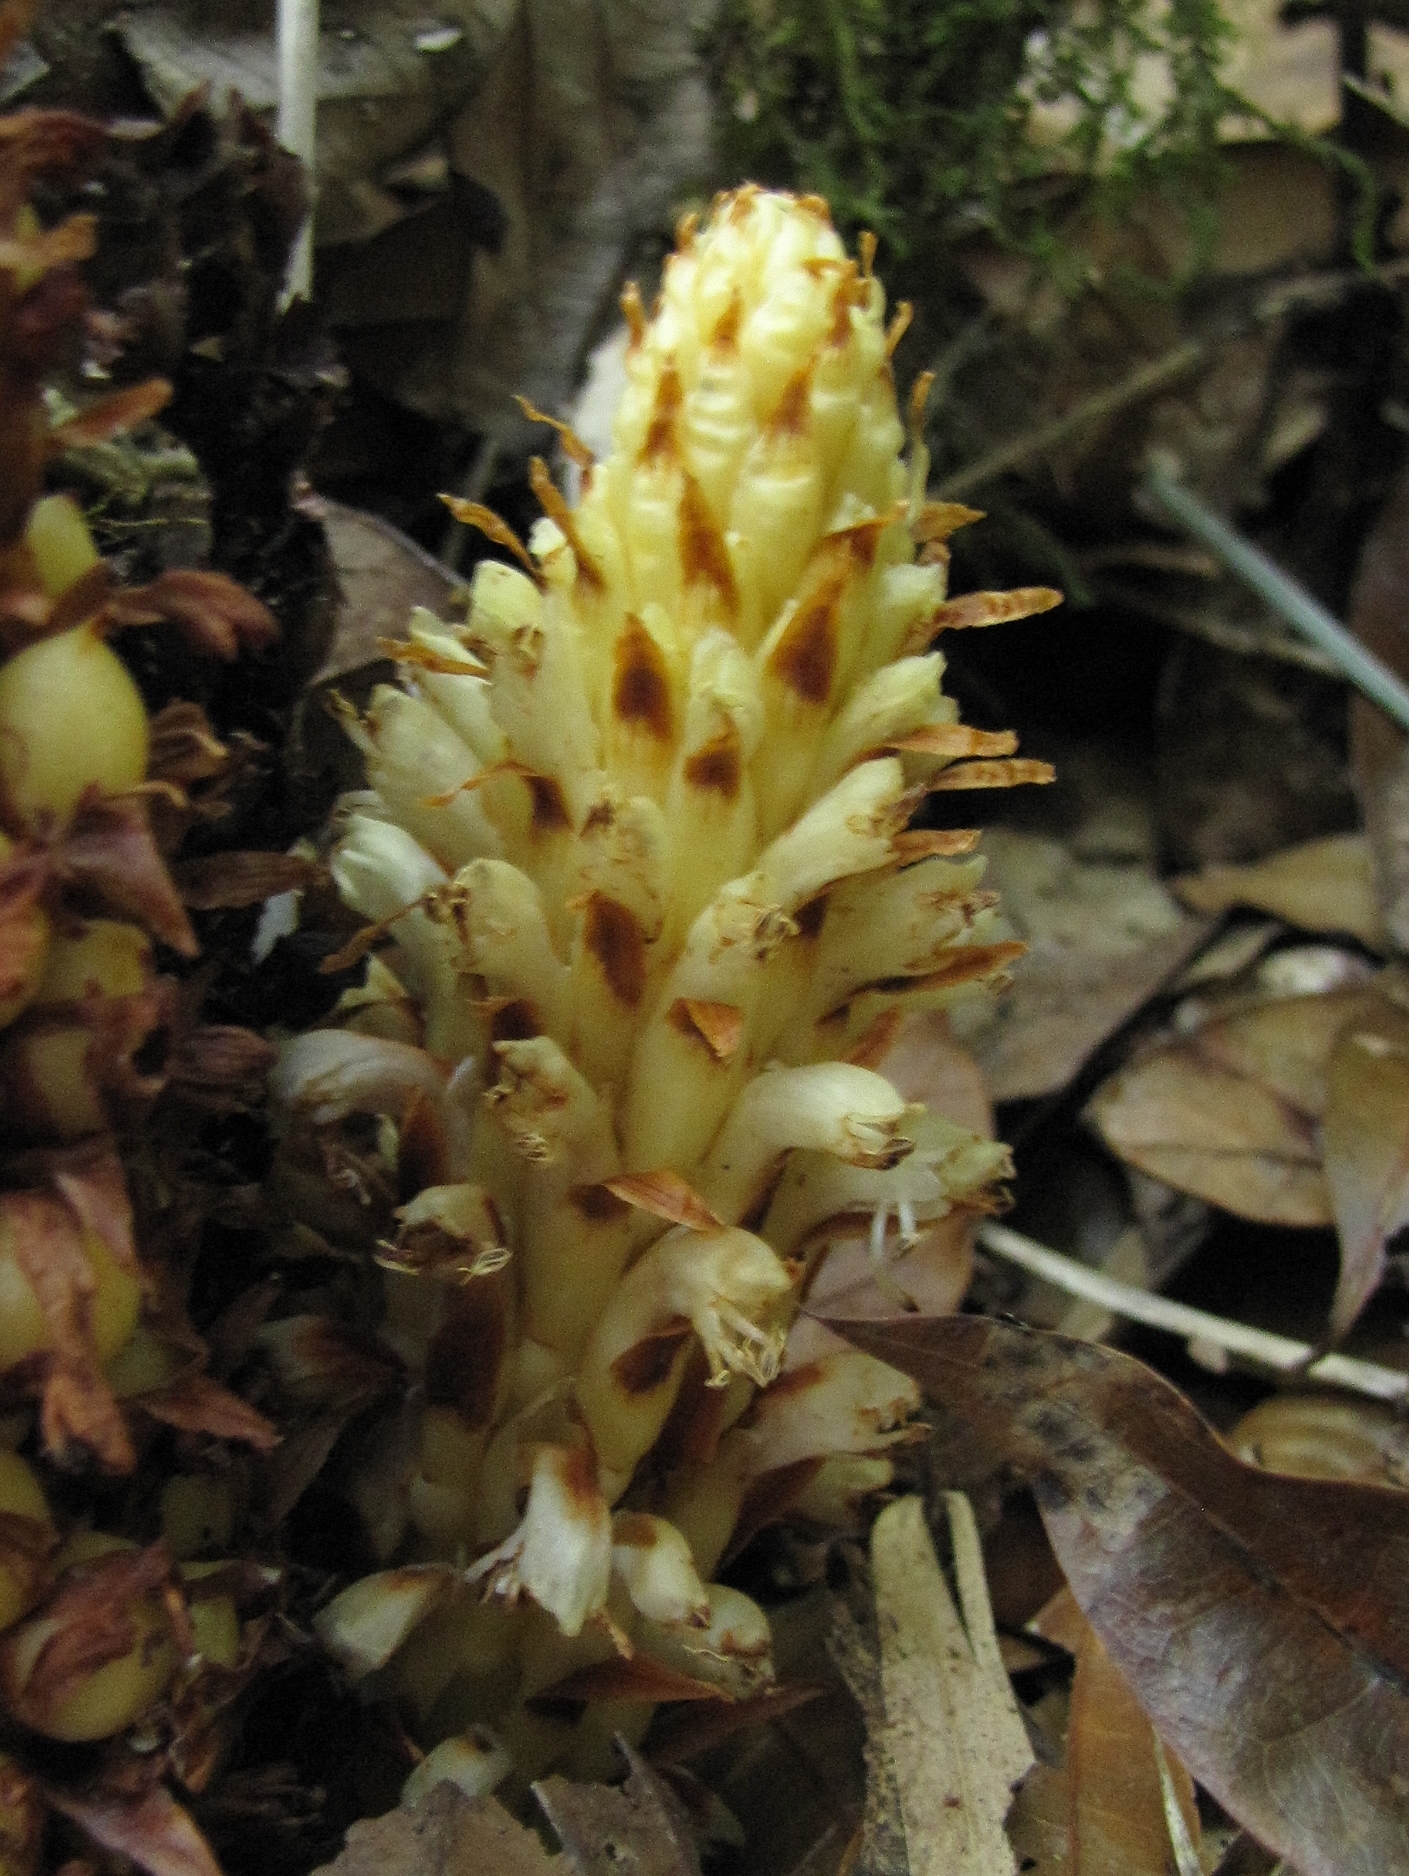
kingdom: Plantae
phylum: Tracheophyta
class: Magnoliopsida
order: Lamiales
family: Orobanchaceae
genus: Conopholis
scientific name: Conopholis panamensis
